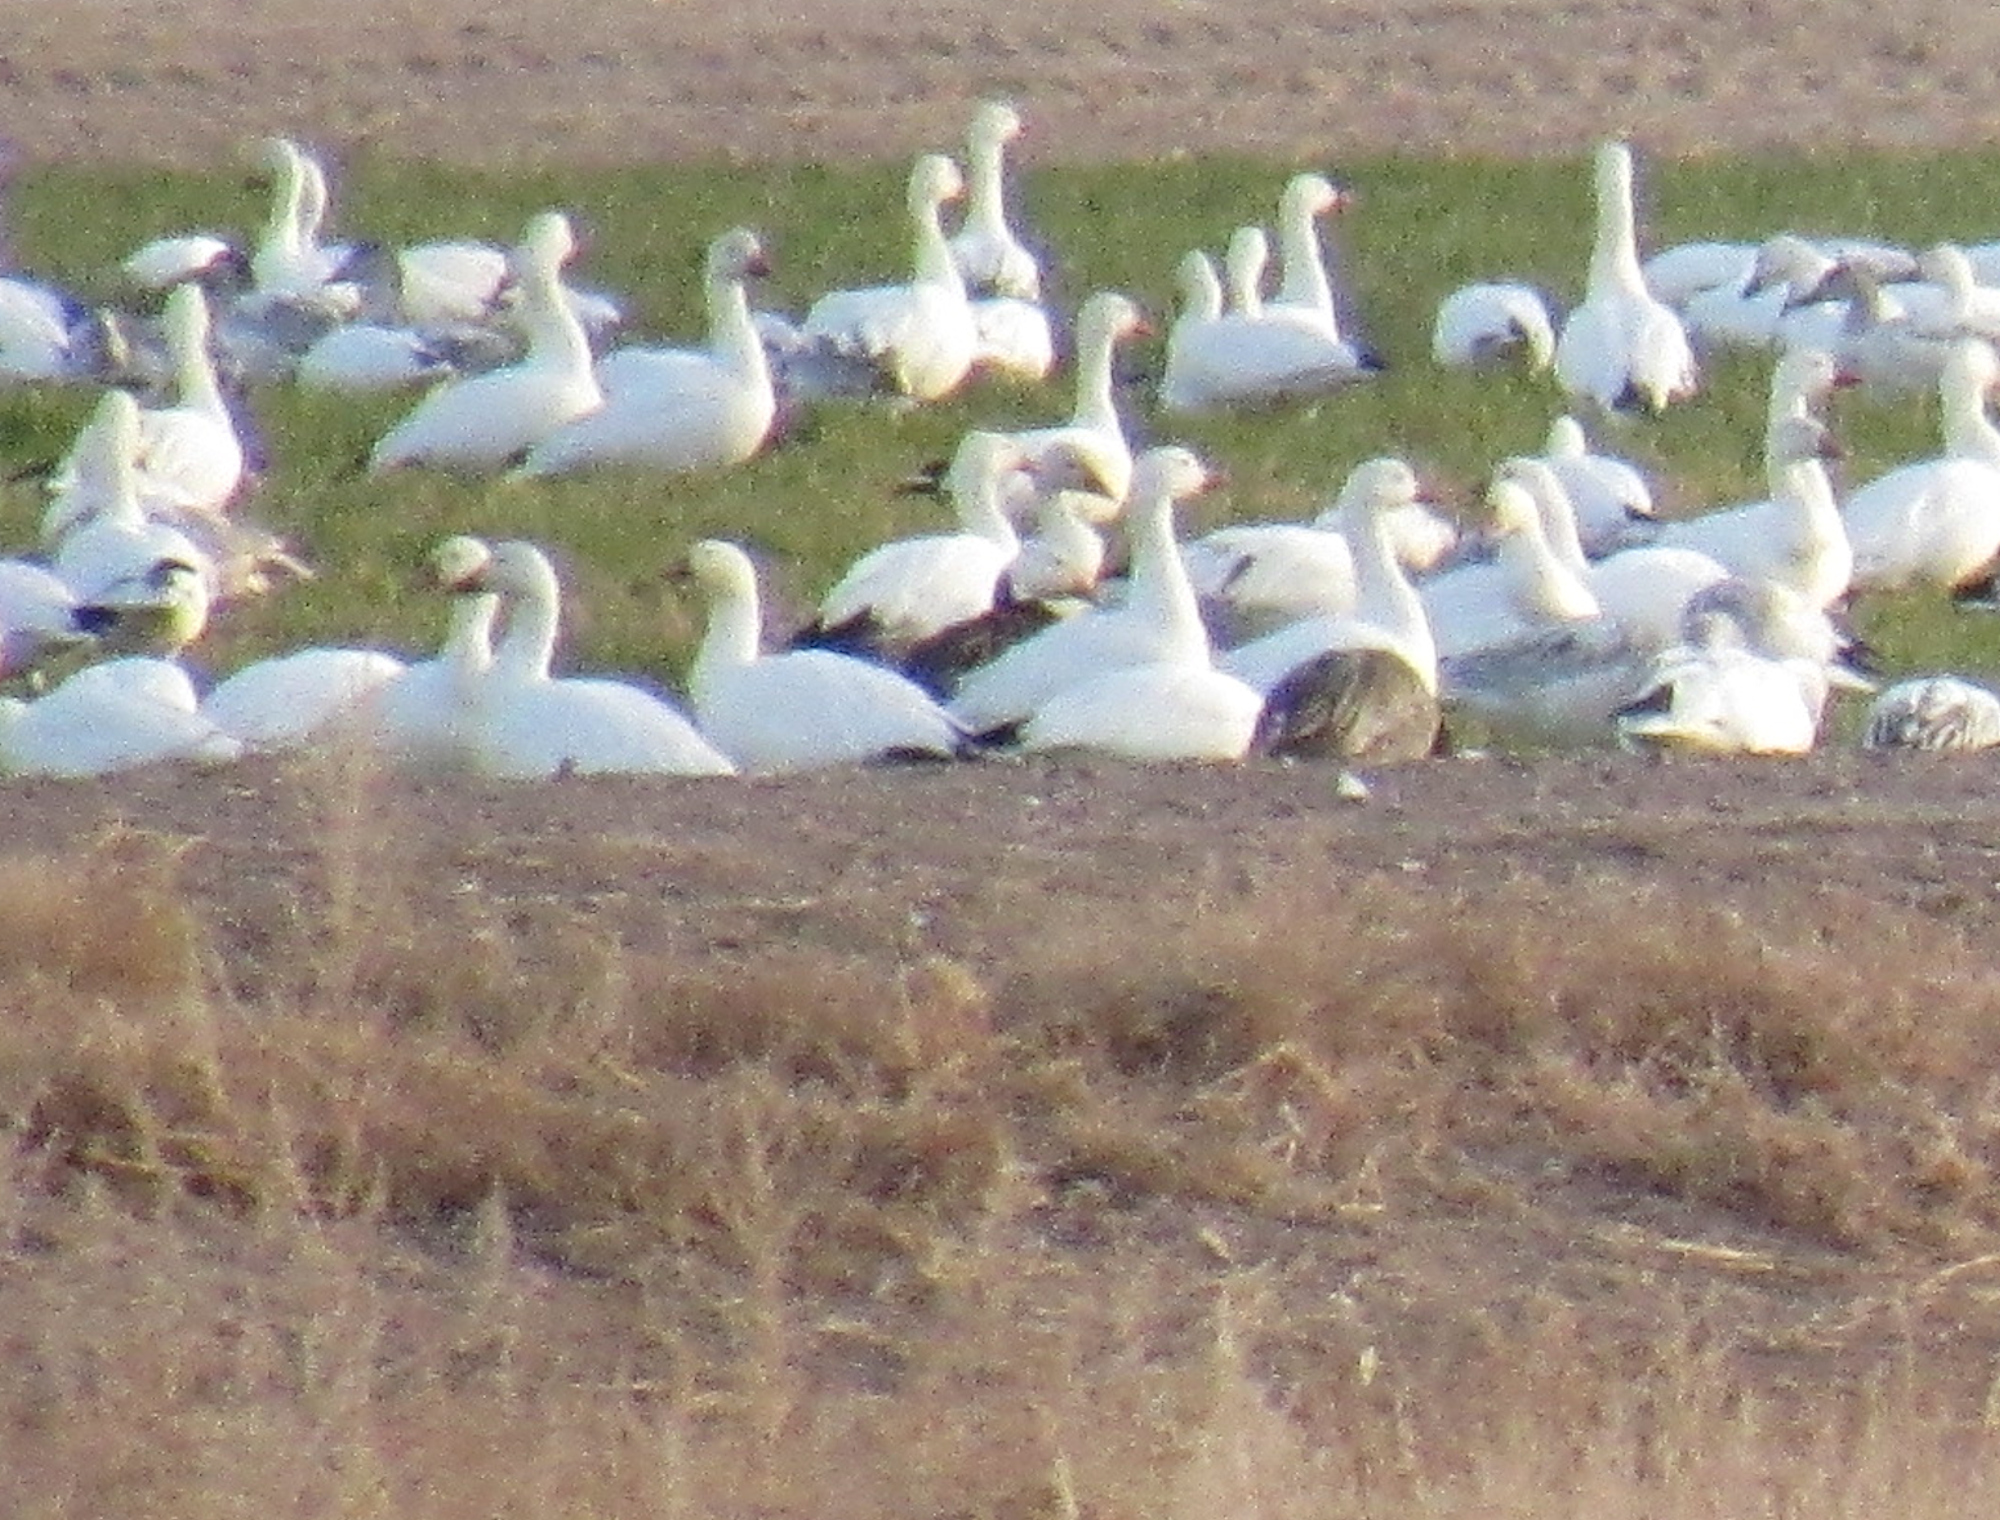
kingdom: Animalia
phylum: Chordata
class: Aves
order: Anseriformes
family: Anatidae
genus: Anser
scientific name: Anser caerulescens
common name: Snow goose
